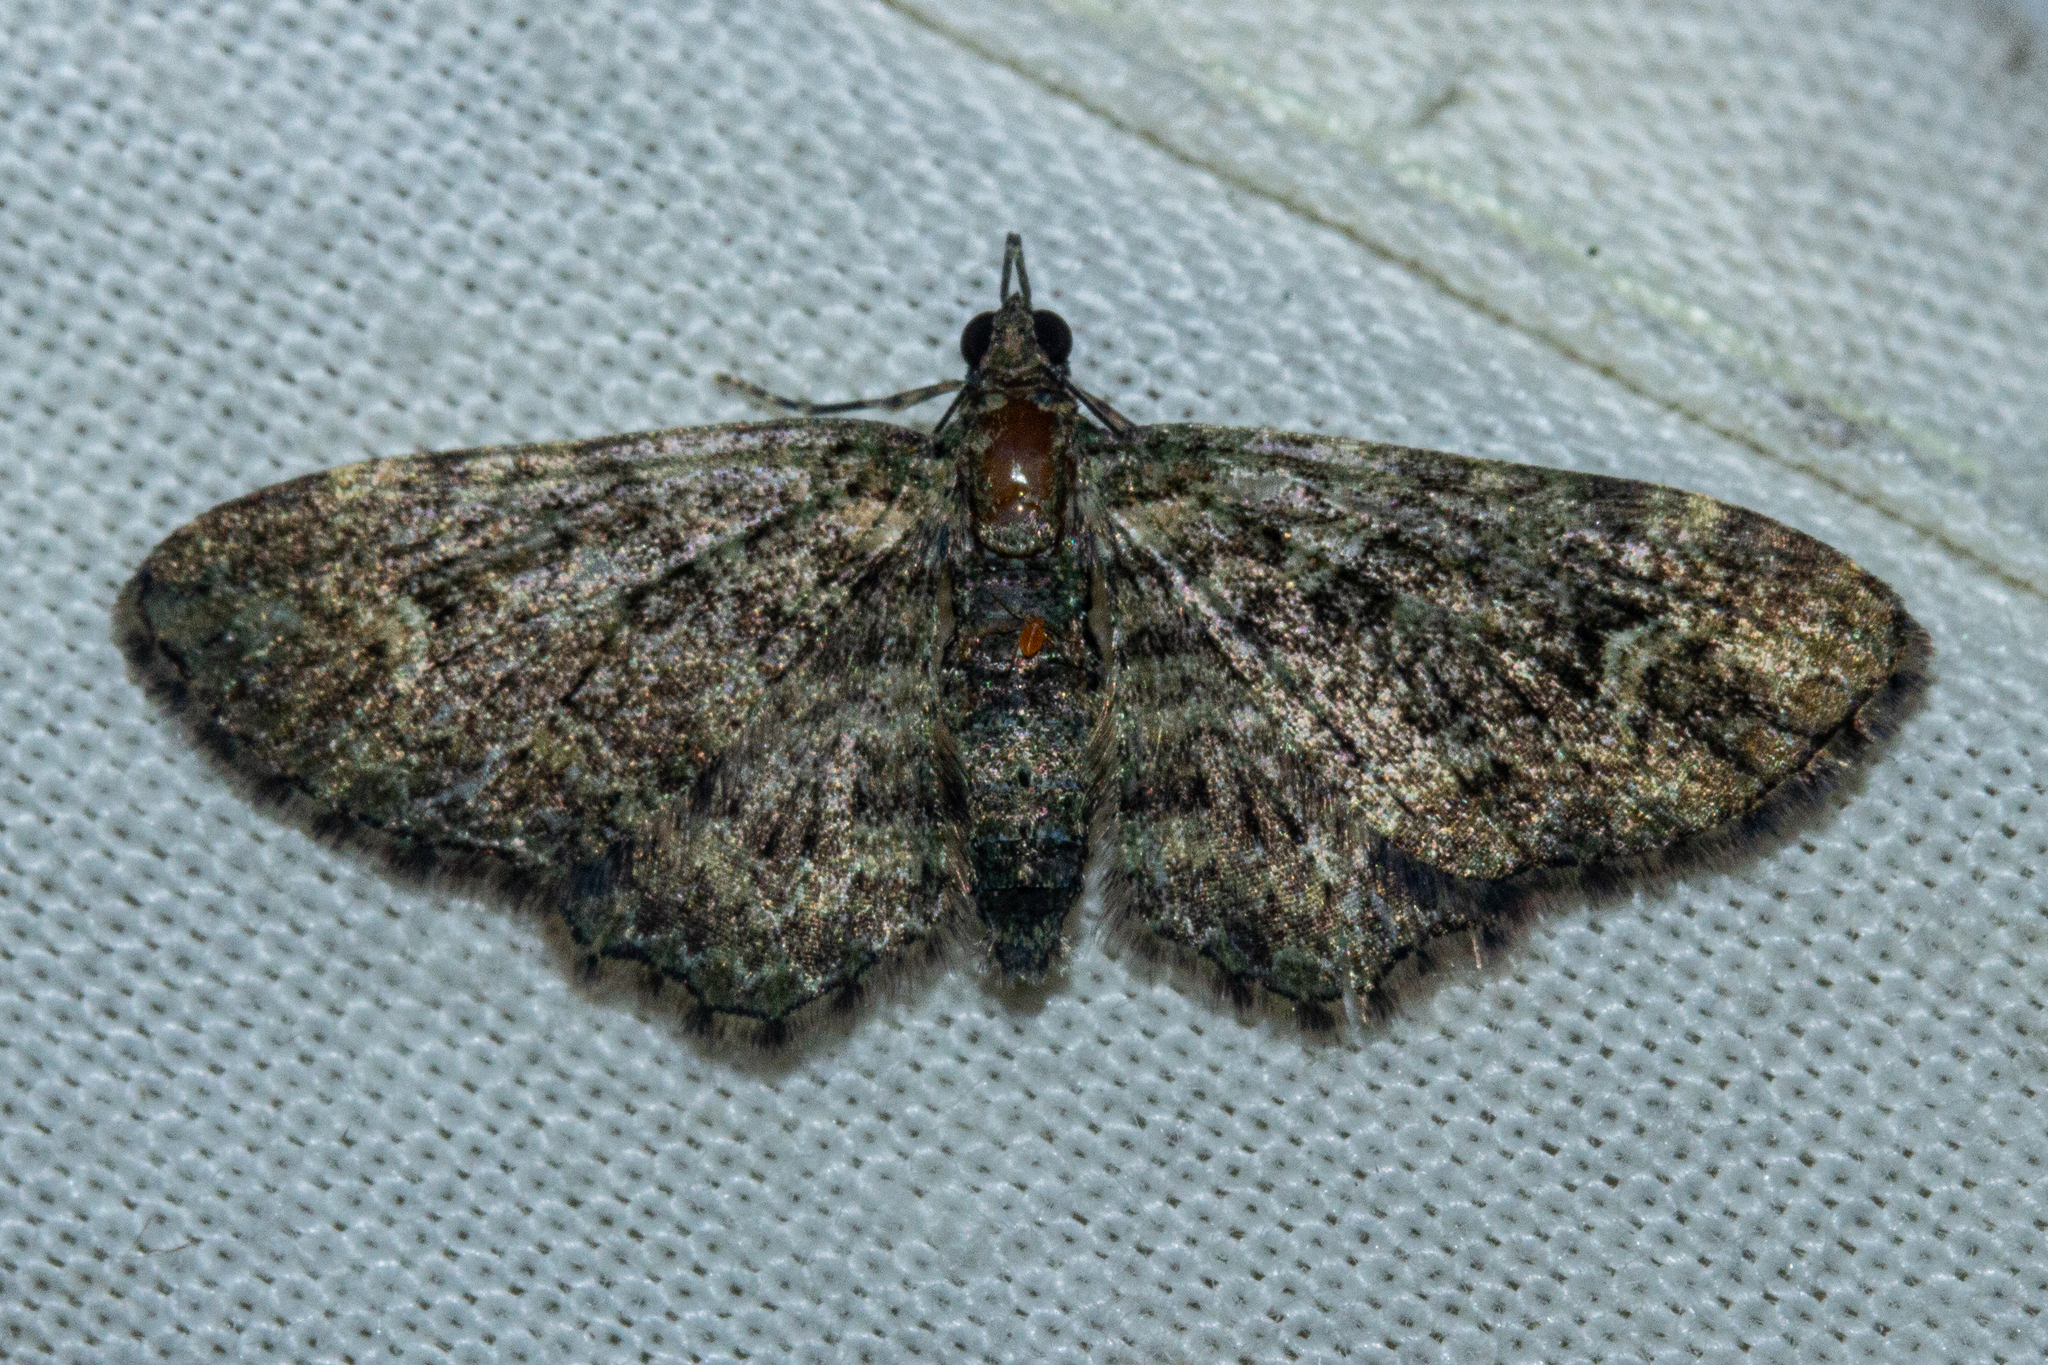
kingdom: Animalia
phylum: Arthropoda
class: Insecta
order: Lepidoptera
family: Geometridae
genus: Pasiphilodes
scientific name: Pasiphilodes testulata
